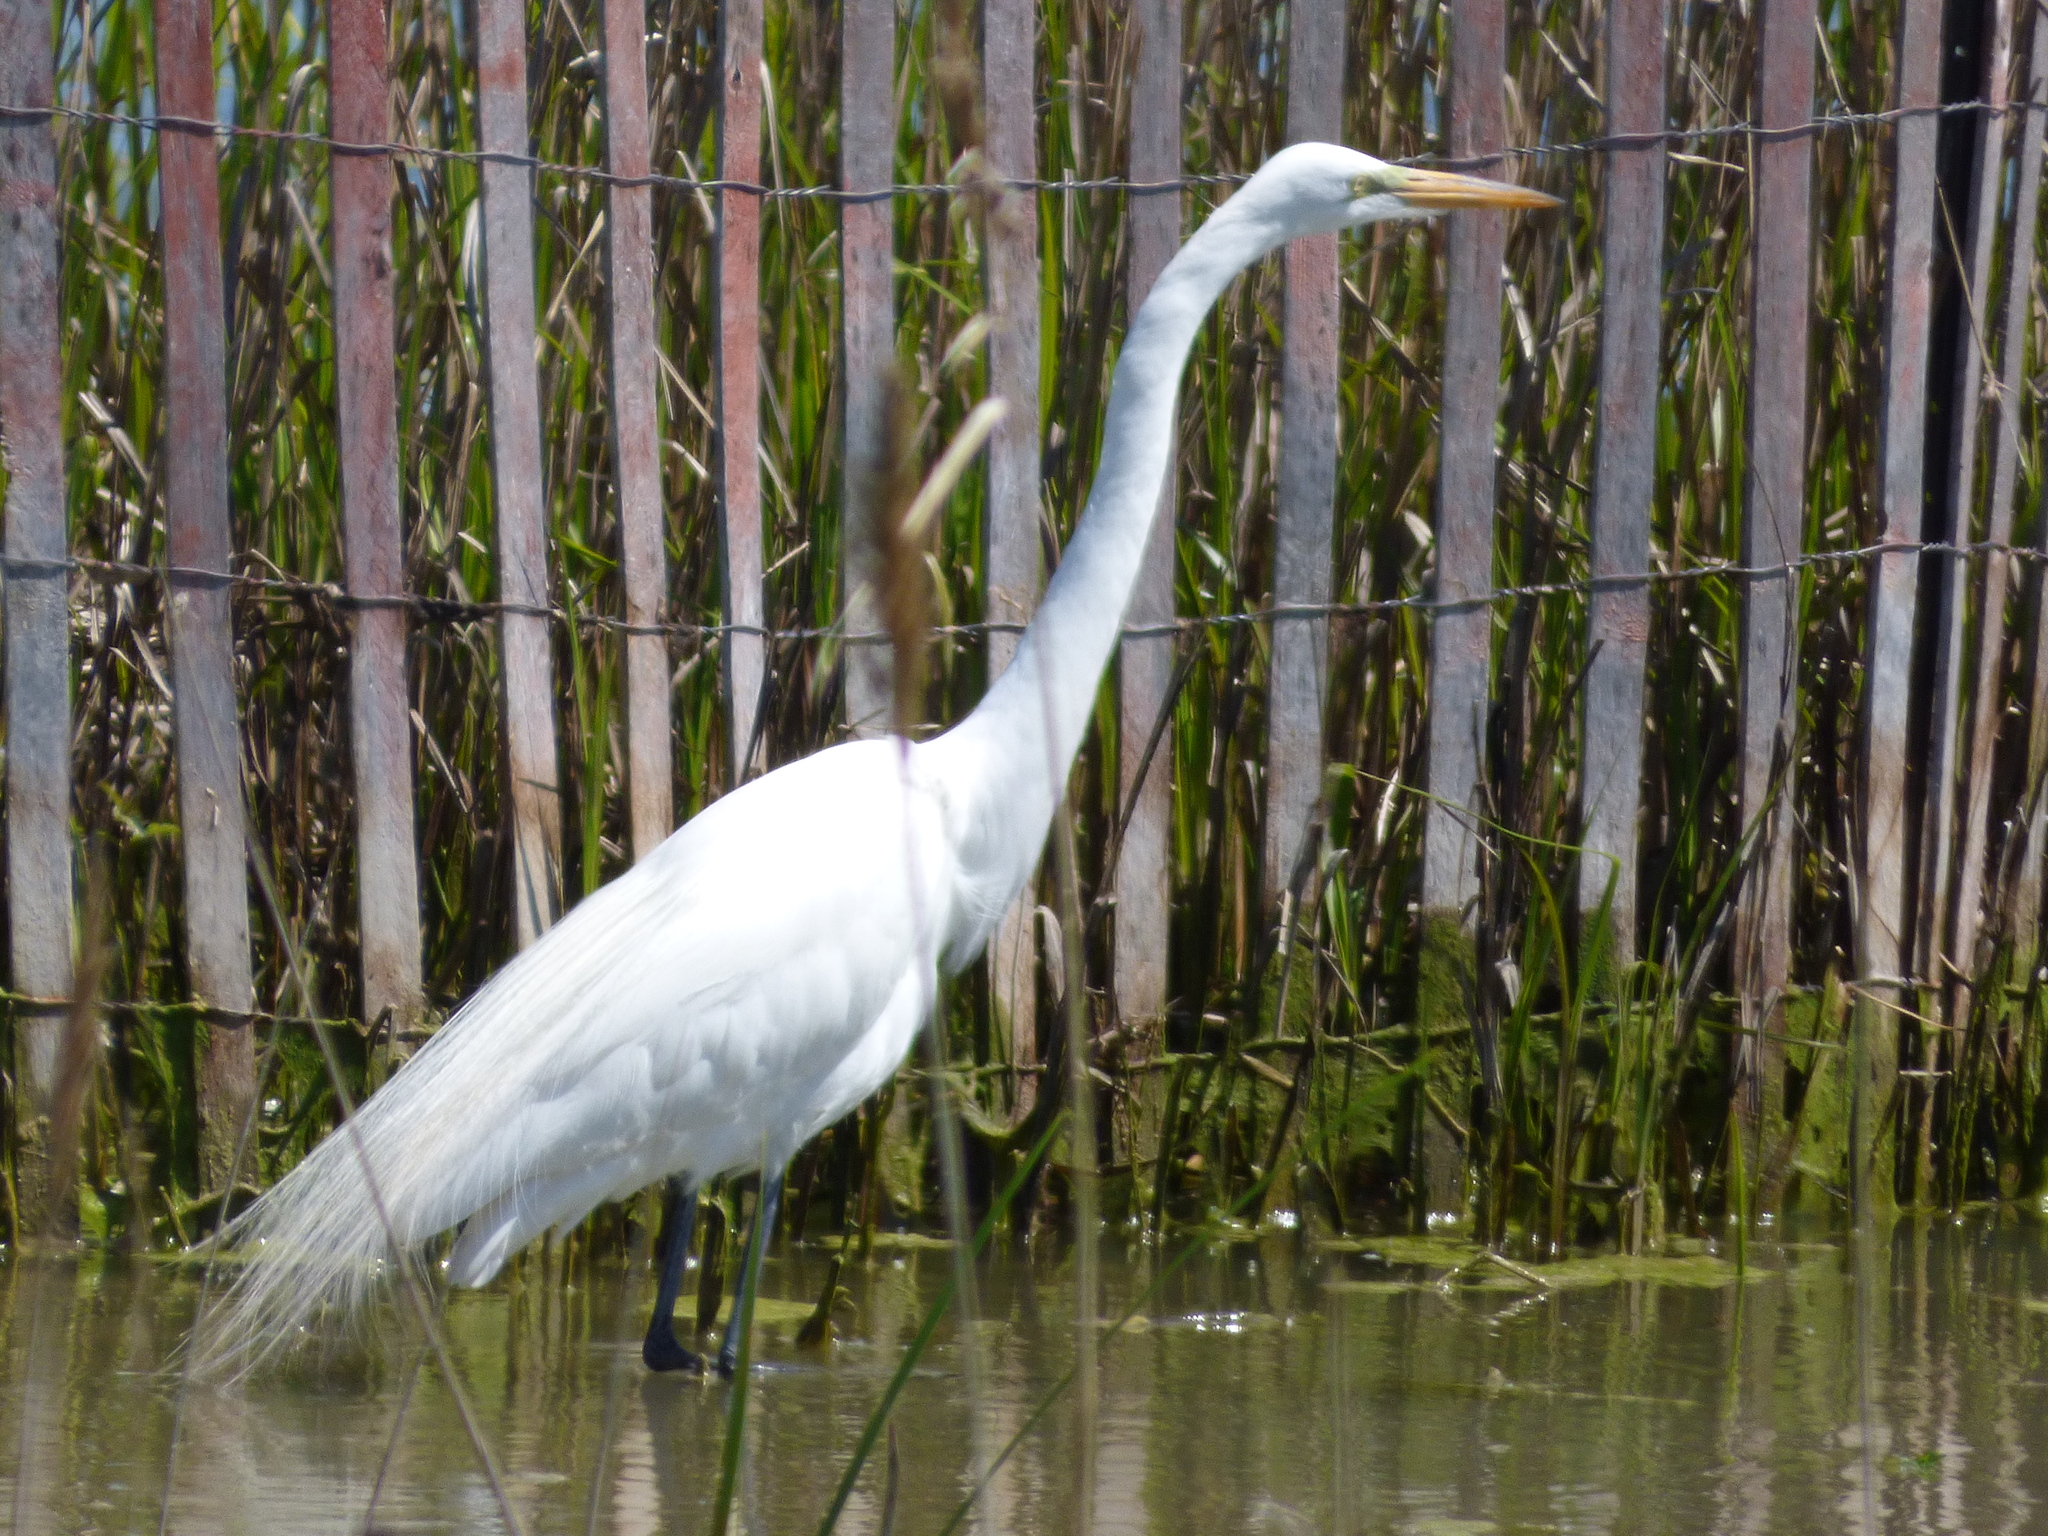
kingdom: Animalia
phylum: Chordata
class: Aves
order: Pelecaniformes
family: Ardeidae
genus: Ardea
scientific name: Ardea alba
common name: Great egret
